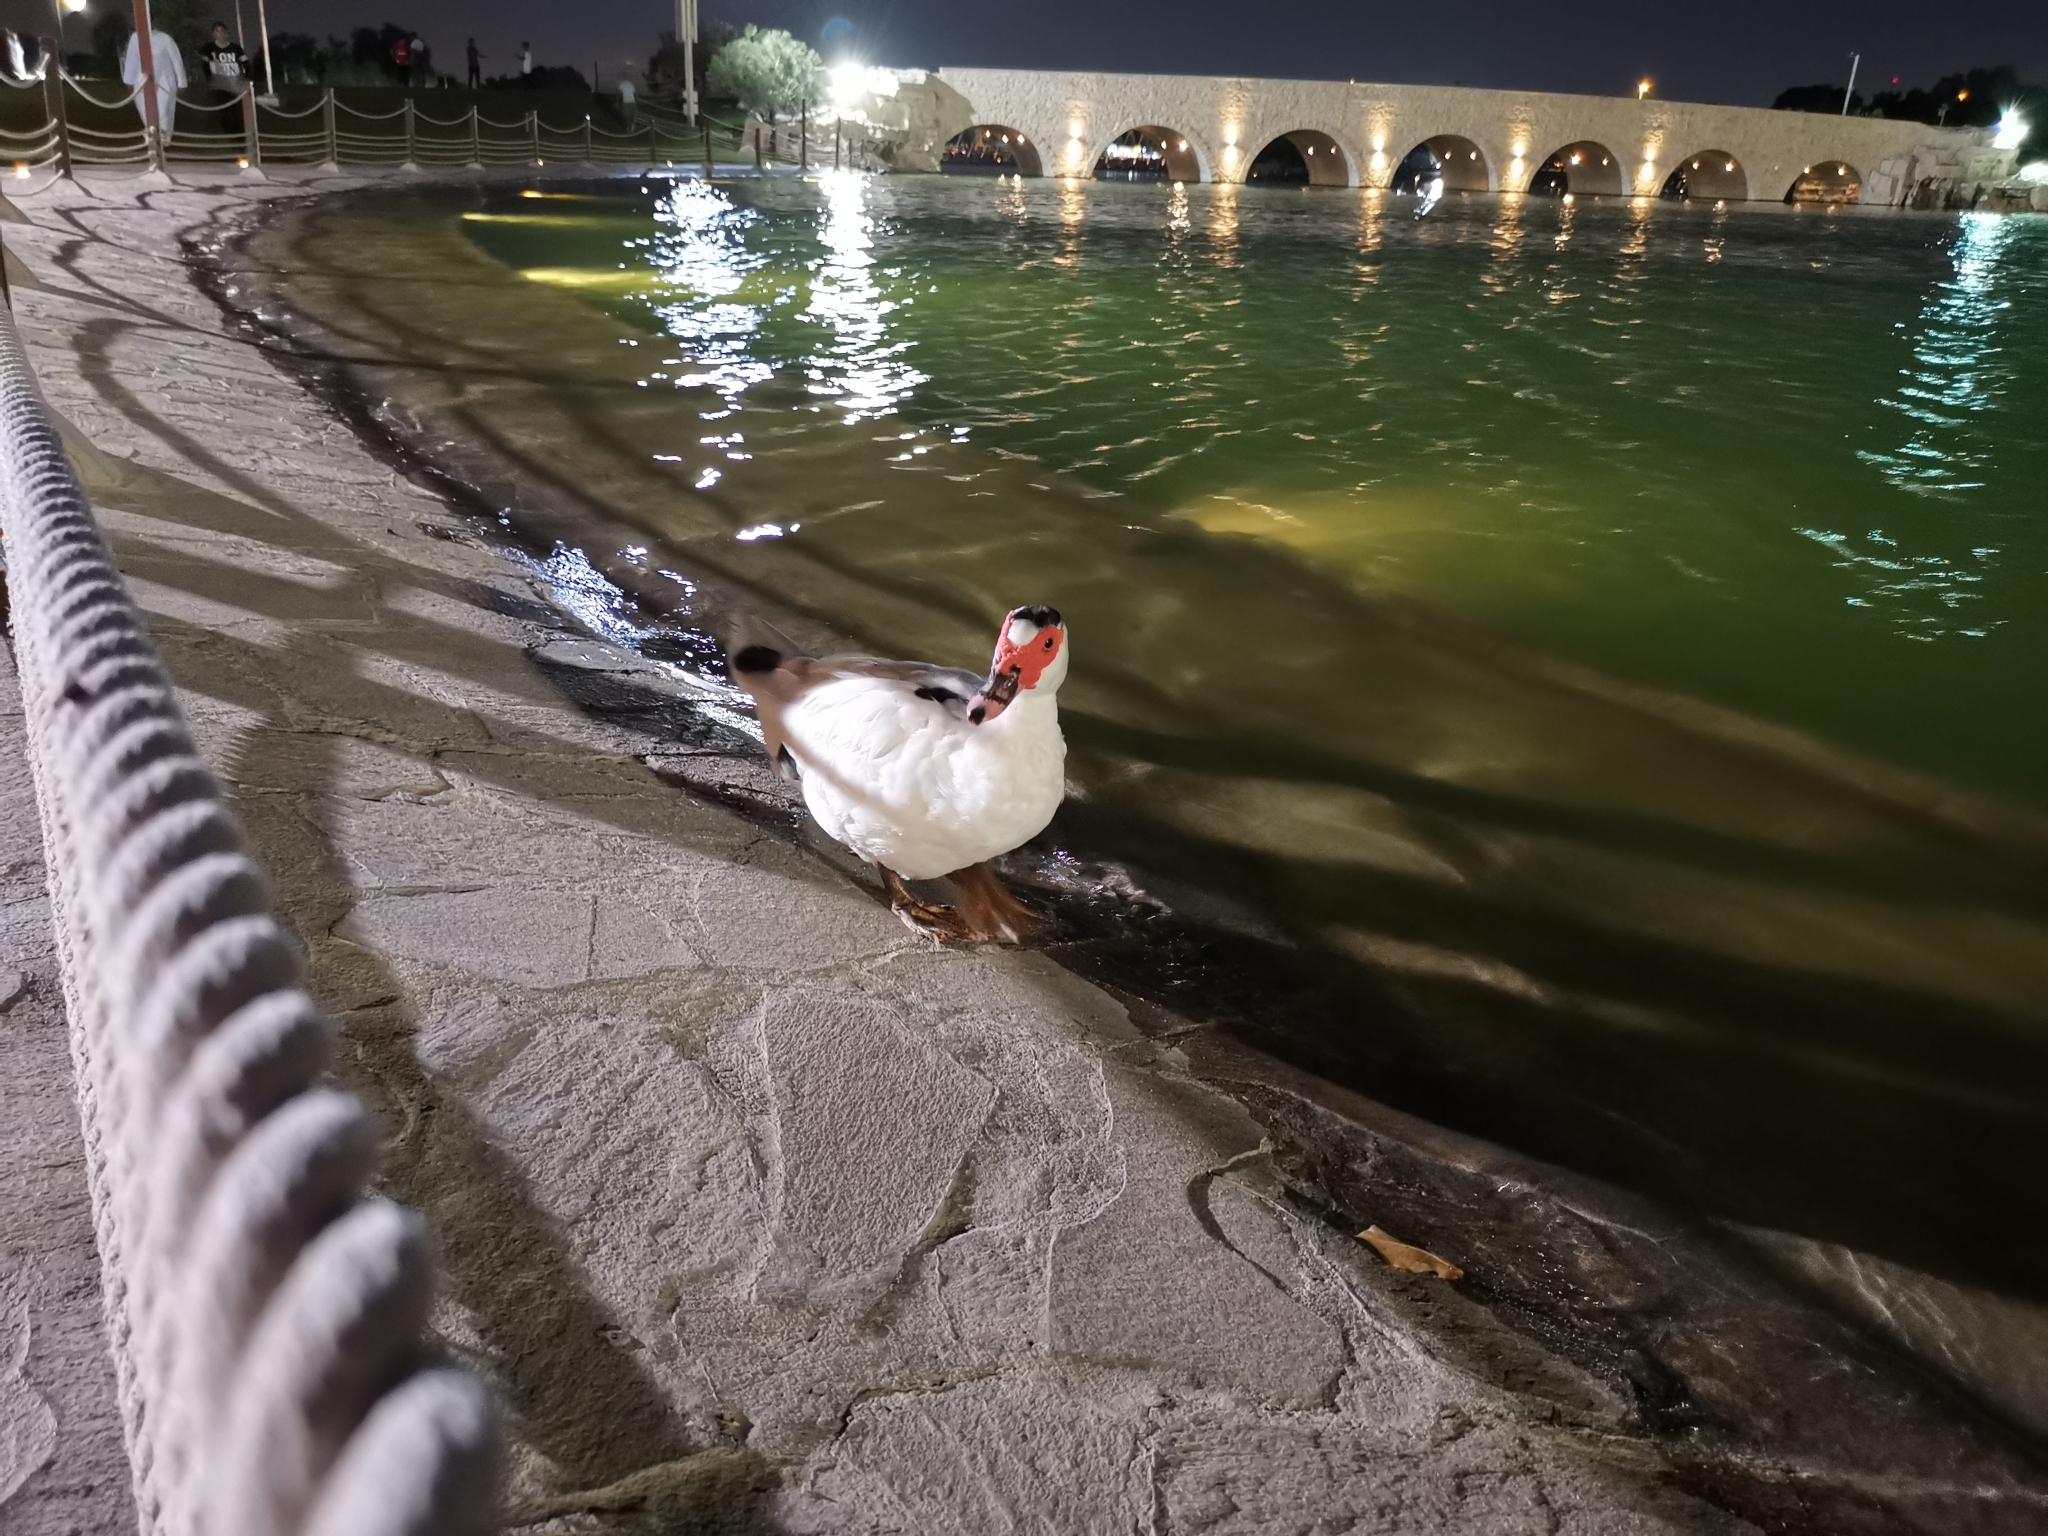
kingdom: Animalia
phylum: Chordata
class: Aves
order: Anseriformes
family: Anatidae
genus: Cairina
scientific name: Cairina moschata
